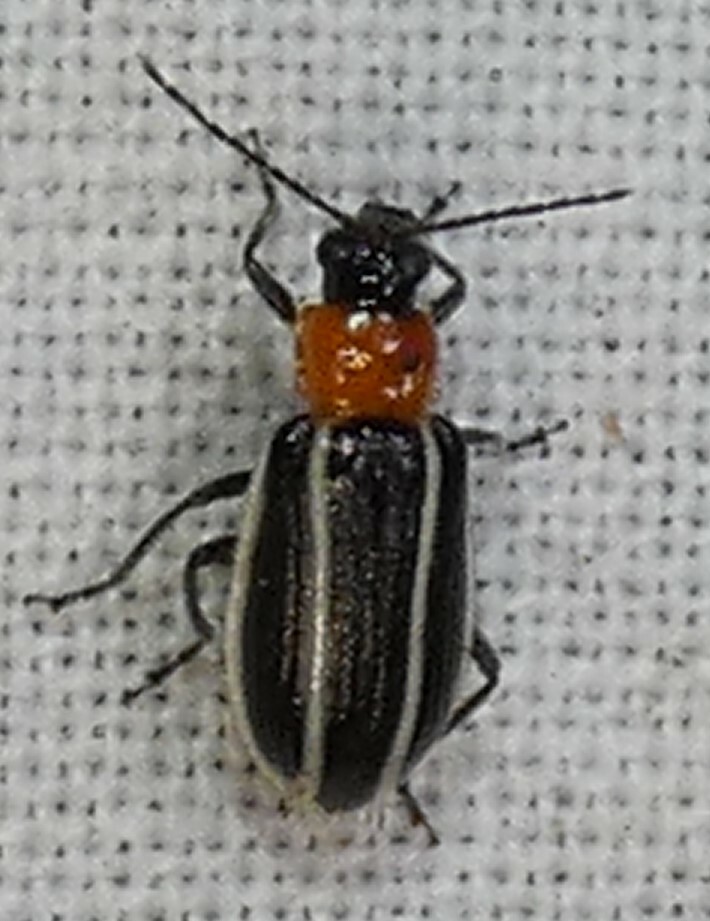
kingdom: Animalia
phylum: Arthropoda
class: Insecta
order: Coleoptera
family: Chrysomelidae
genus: Acalymma
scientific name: Acalymma vinctum
